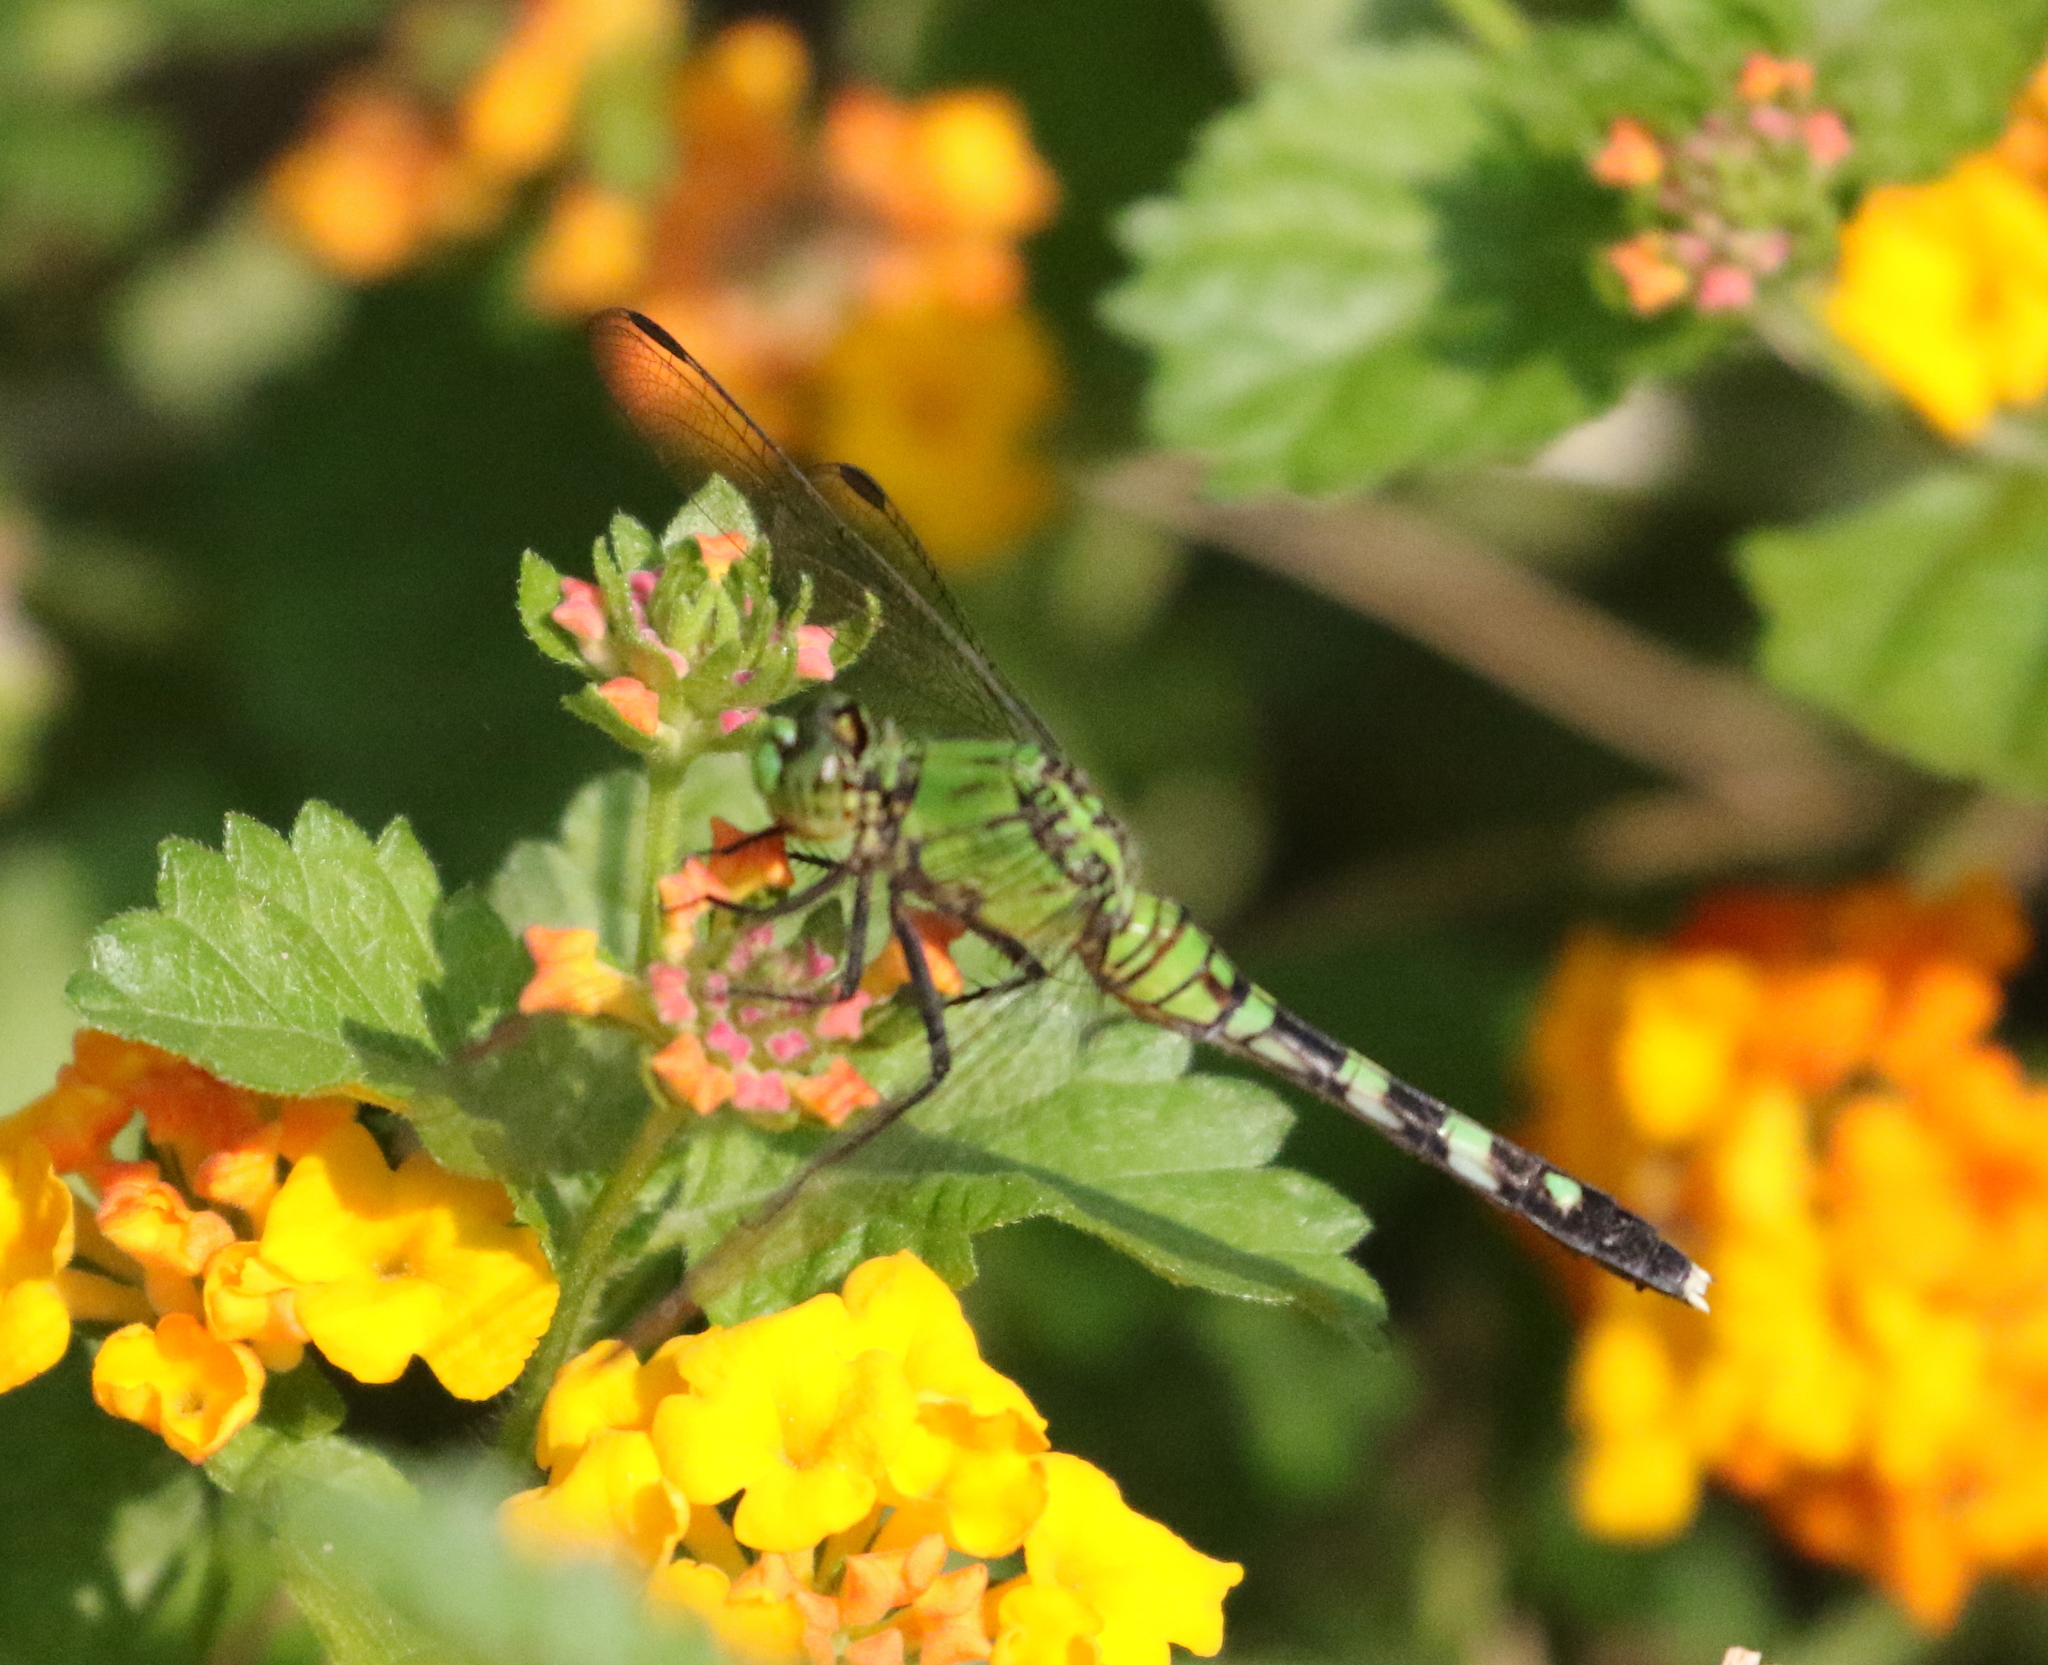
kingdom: Animalia
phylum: Arthropoda
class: Insecta
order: Odonata
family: Libellulidae
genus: Erythemis
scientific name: Erythemis simplicicollis
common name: Eastern pondhawk
